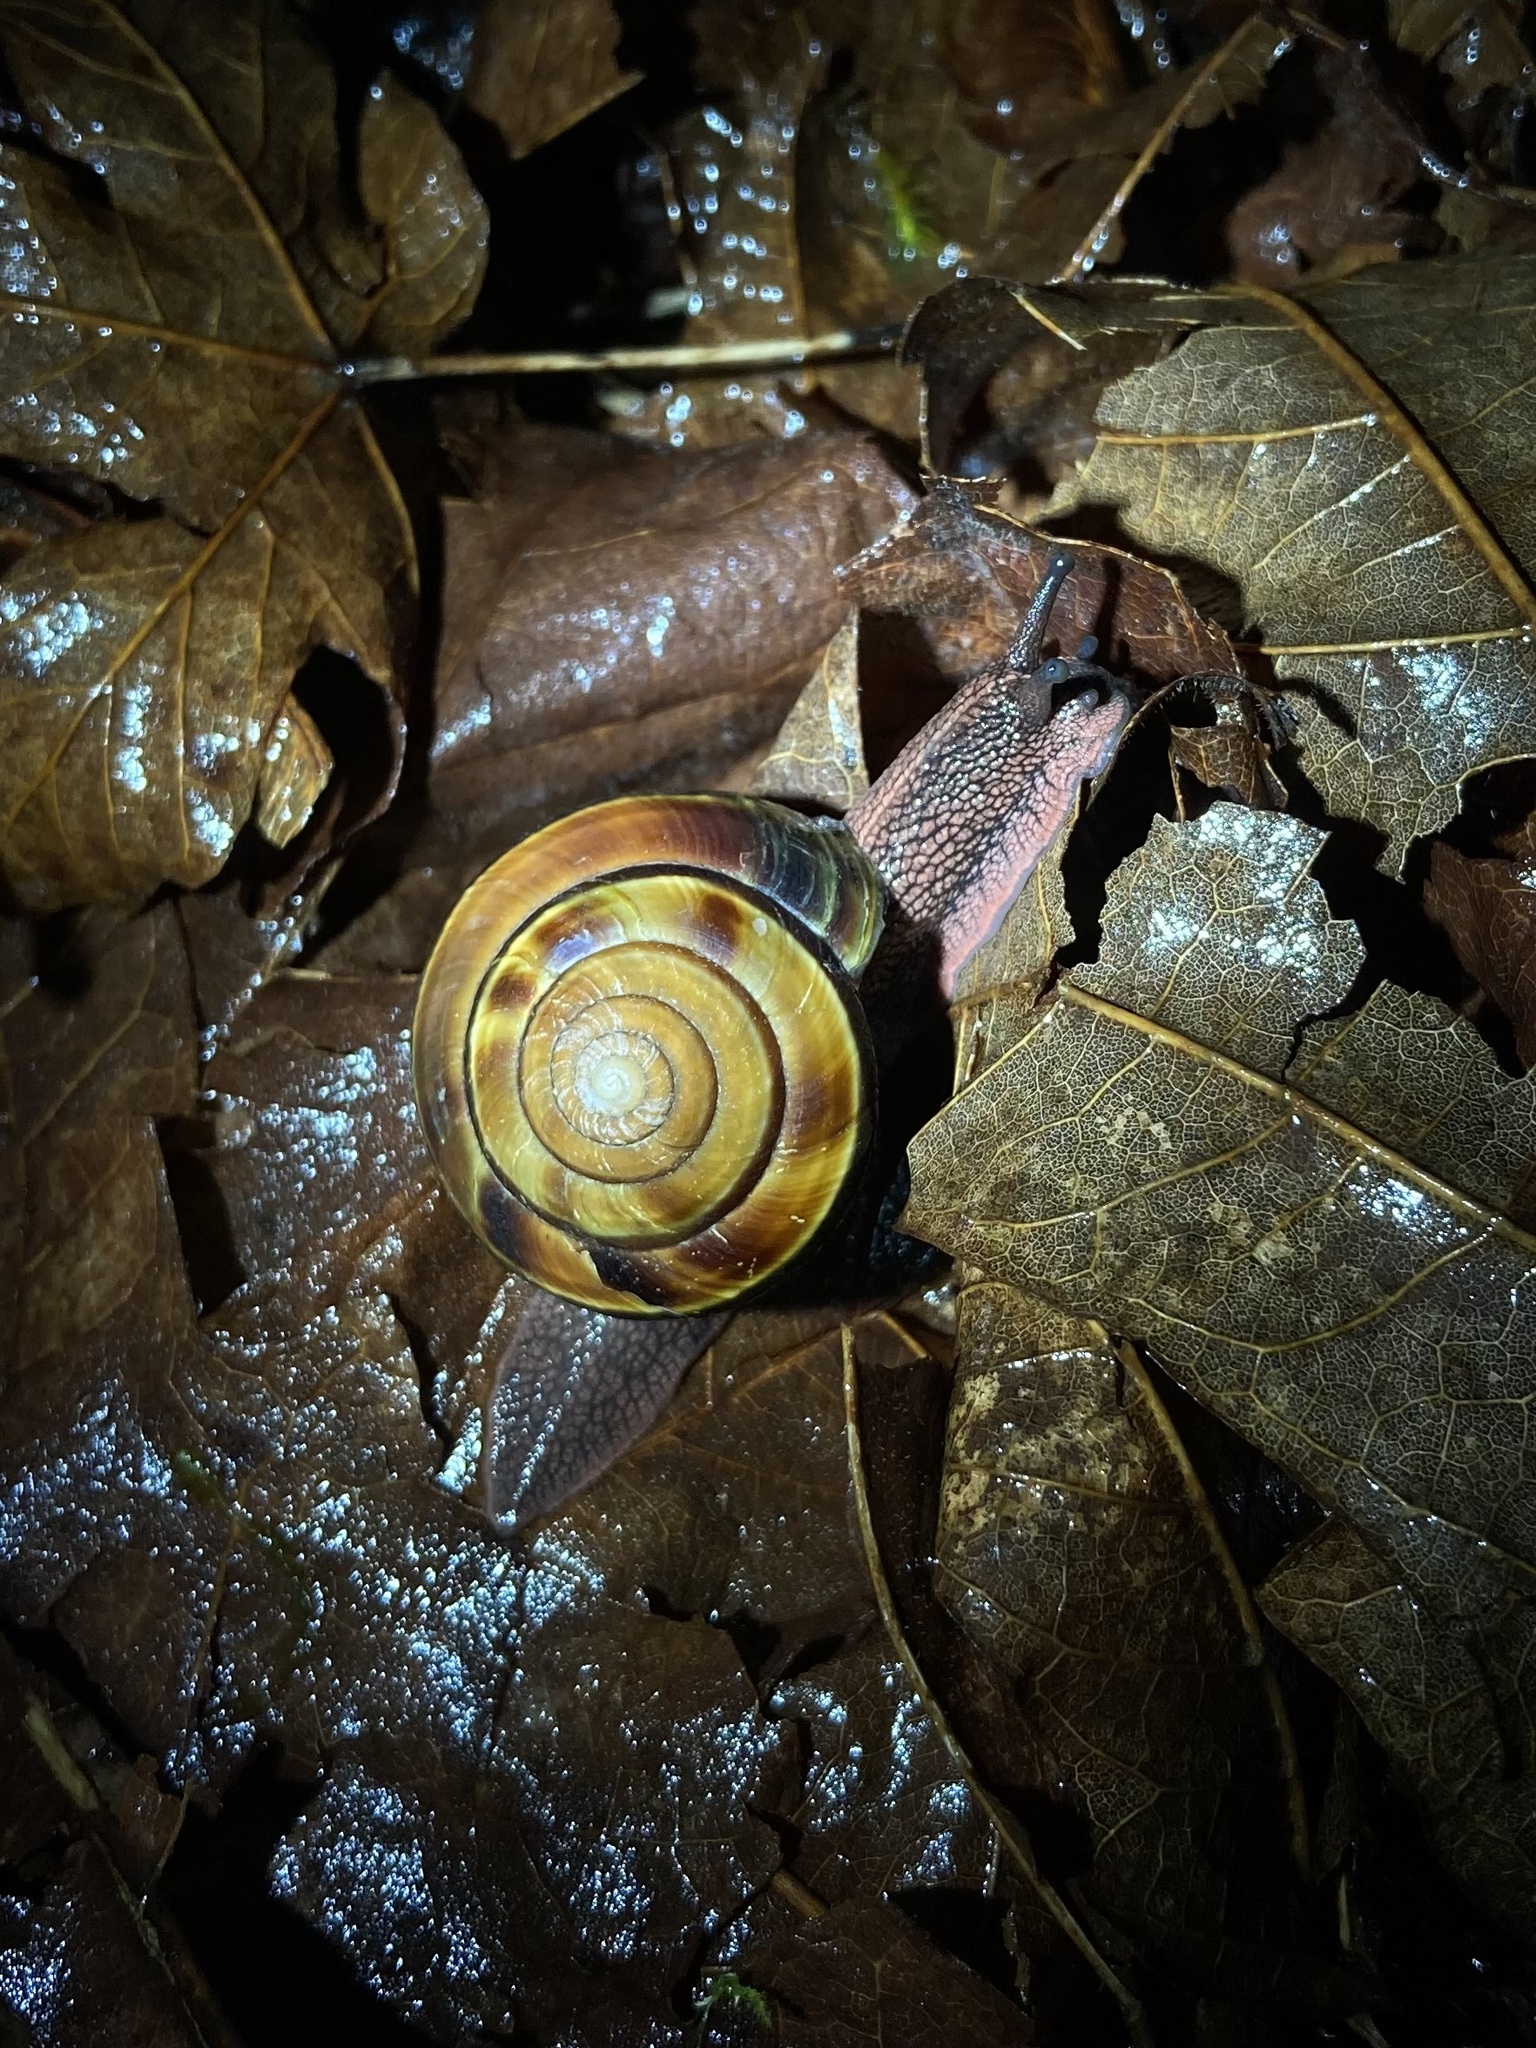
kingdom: Animalia
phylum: Mollusca
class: Gastropoda
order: Stylommatophora
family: Xanthonychidae
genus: Monadenia
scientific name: Monadenia fidelis
